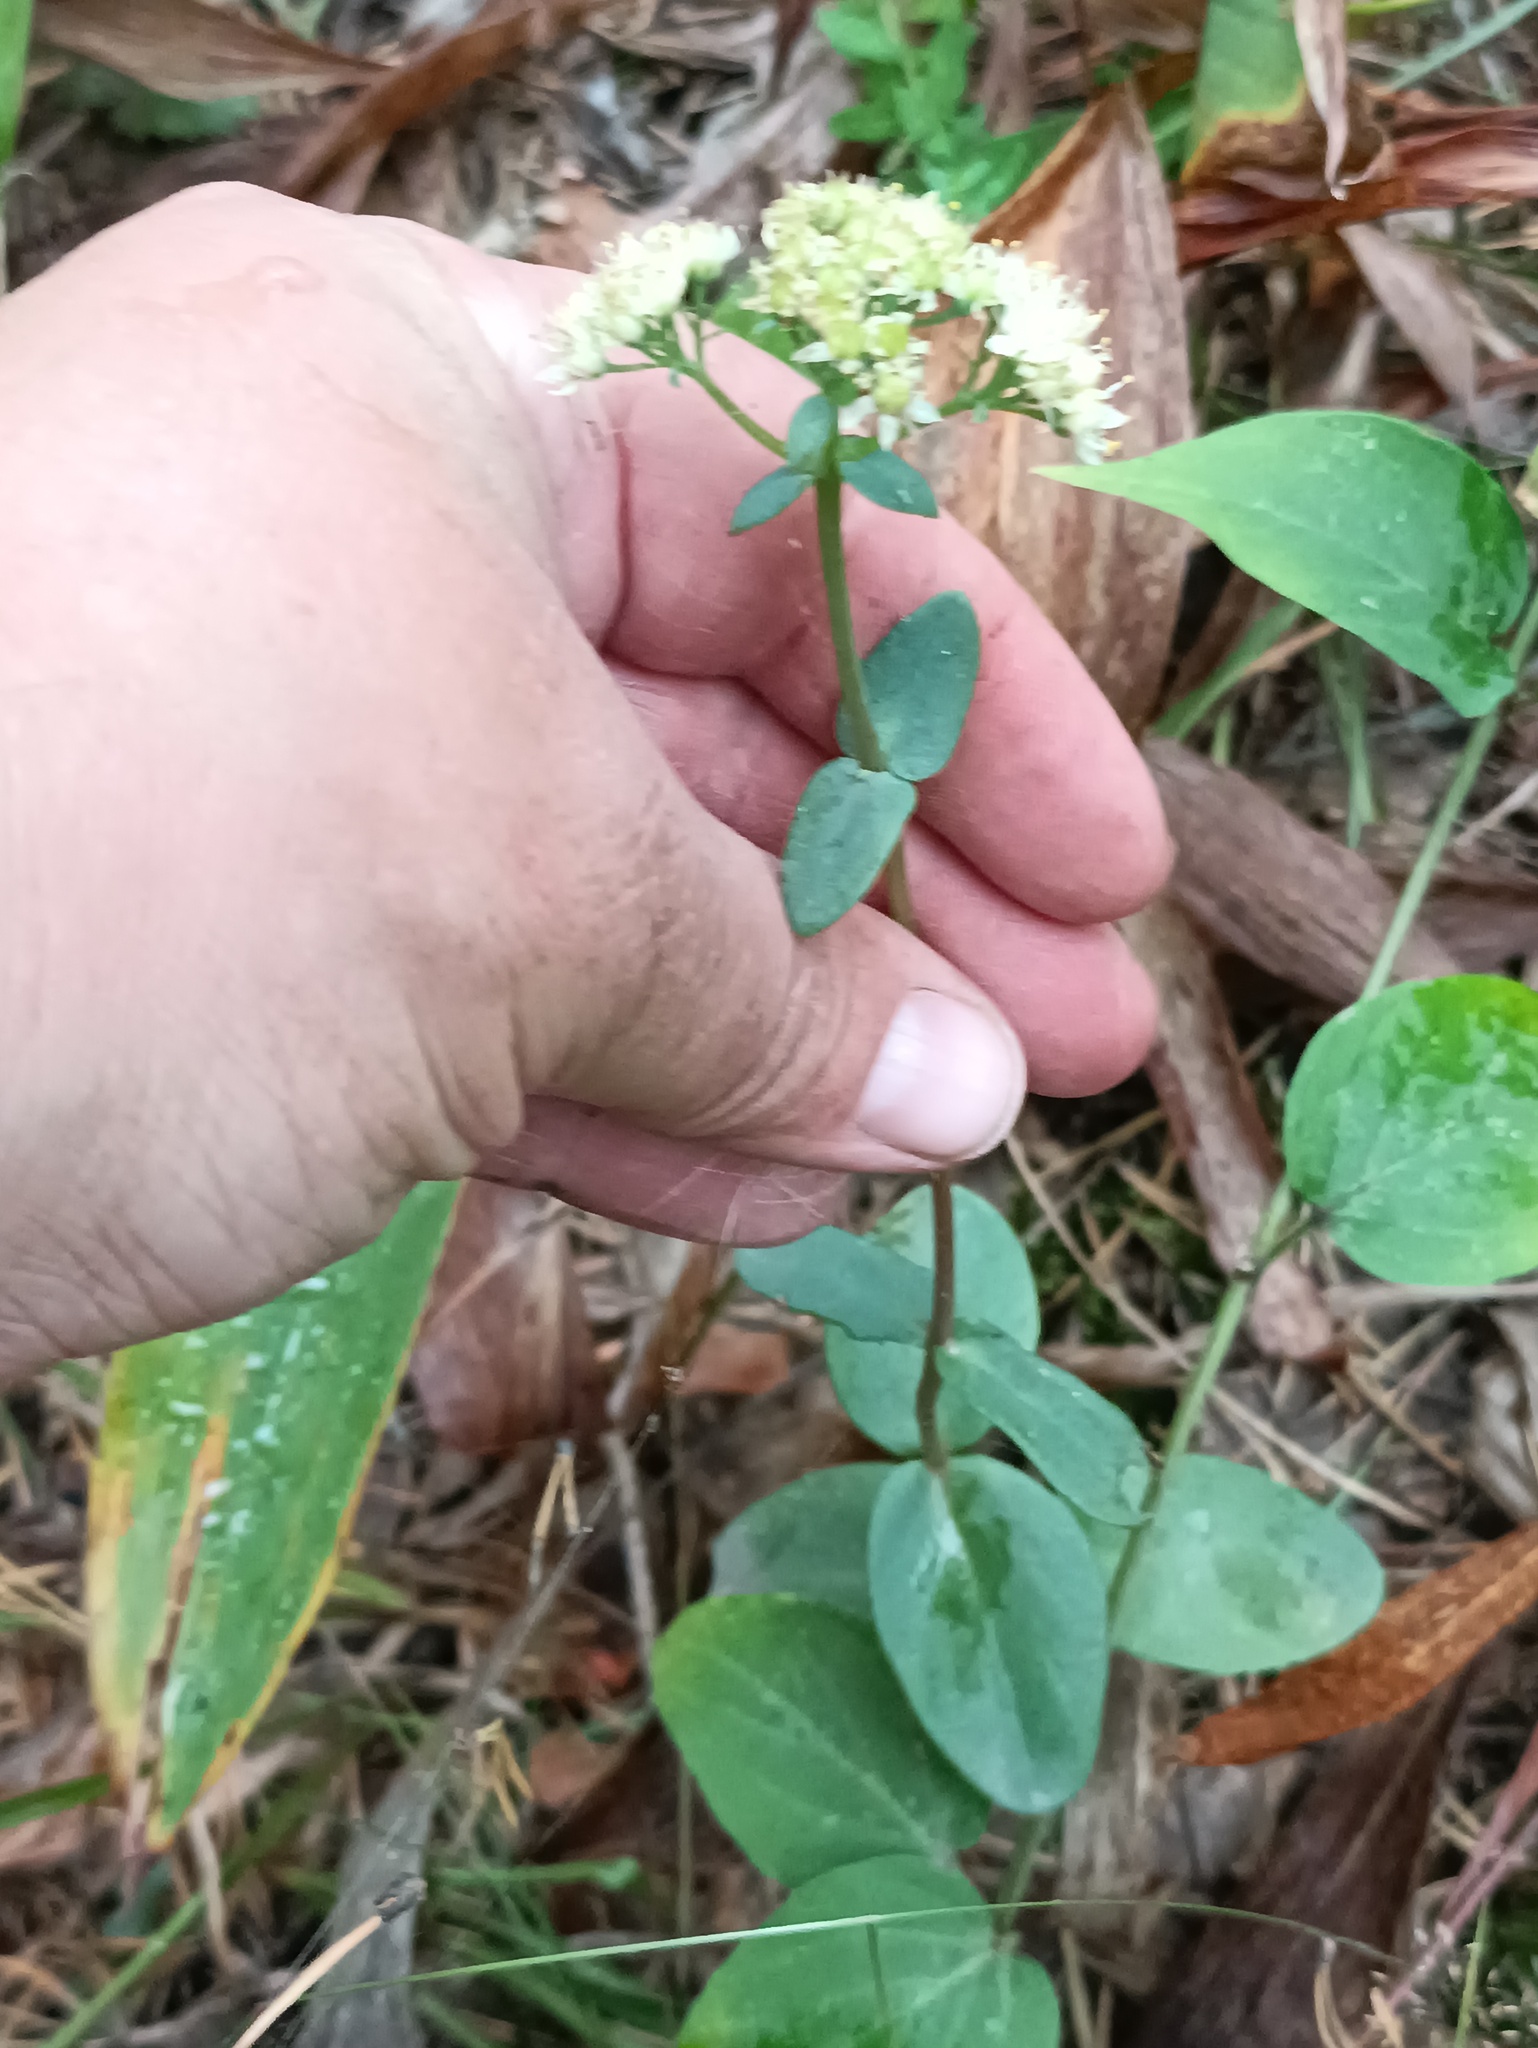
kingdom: Plantae
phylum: Tracheophyta
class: Magnoliopsida
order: Saxifragales
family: Crassulaceae
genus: Hylotelephium
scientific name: Hylotelephium maximum
